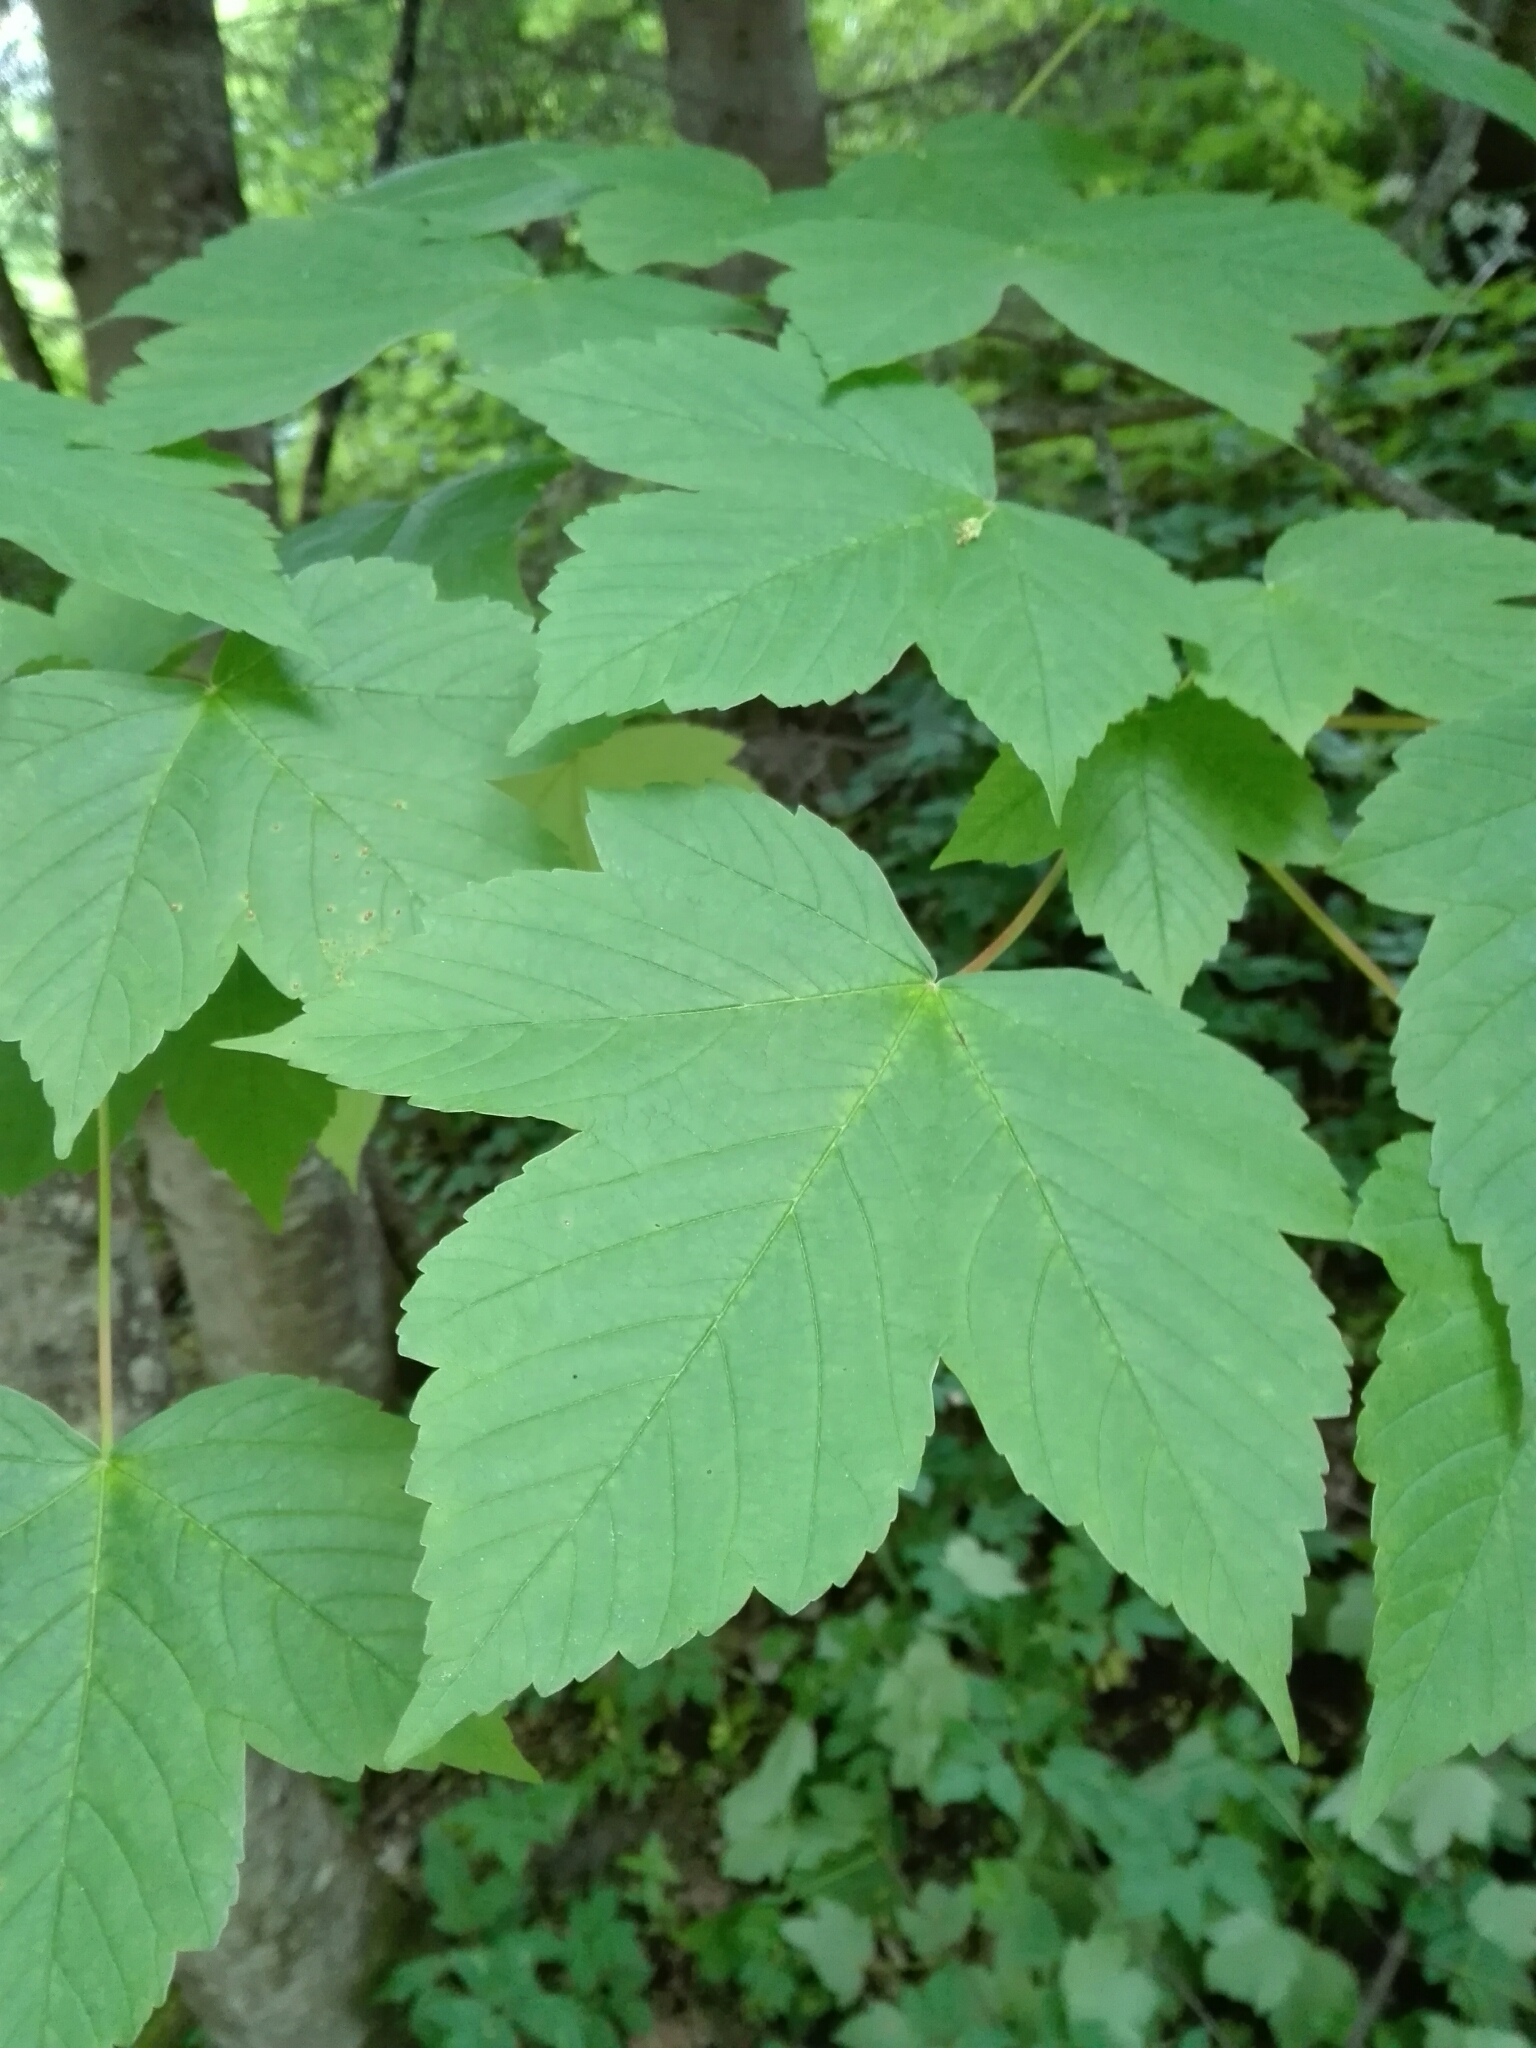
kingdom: Plantae
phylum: Tracheophyta
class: Magnoliopsida
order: Sapindales
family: Sapindaceae
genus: Acer
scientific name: Acer pseudoplatanus
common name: Sycamore
